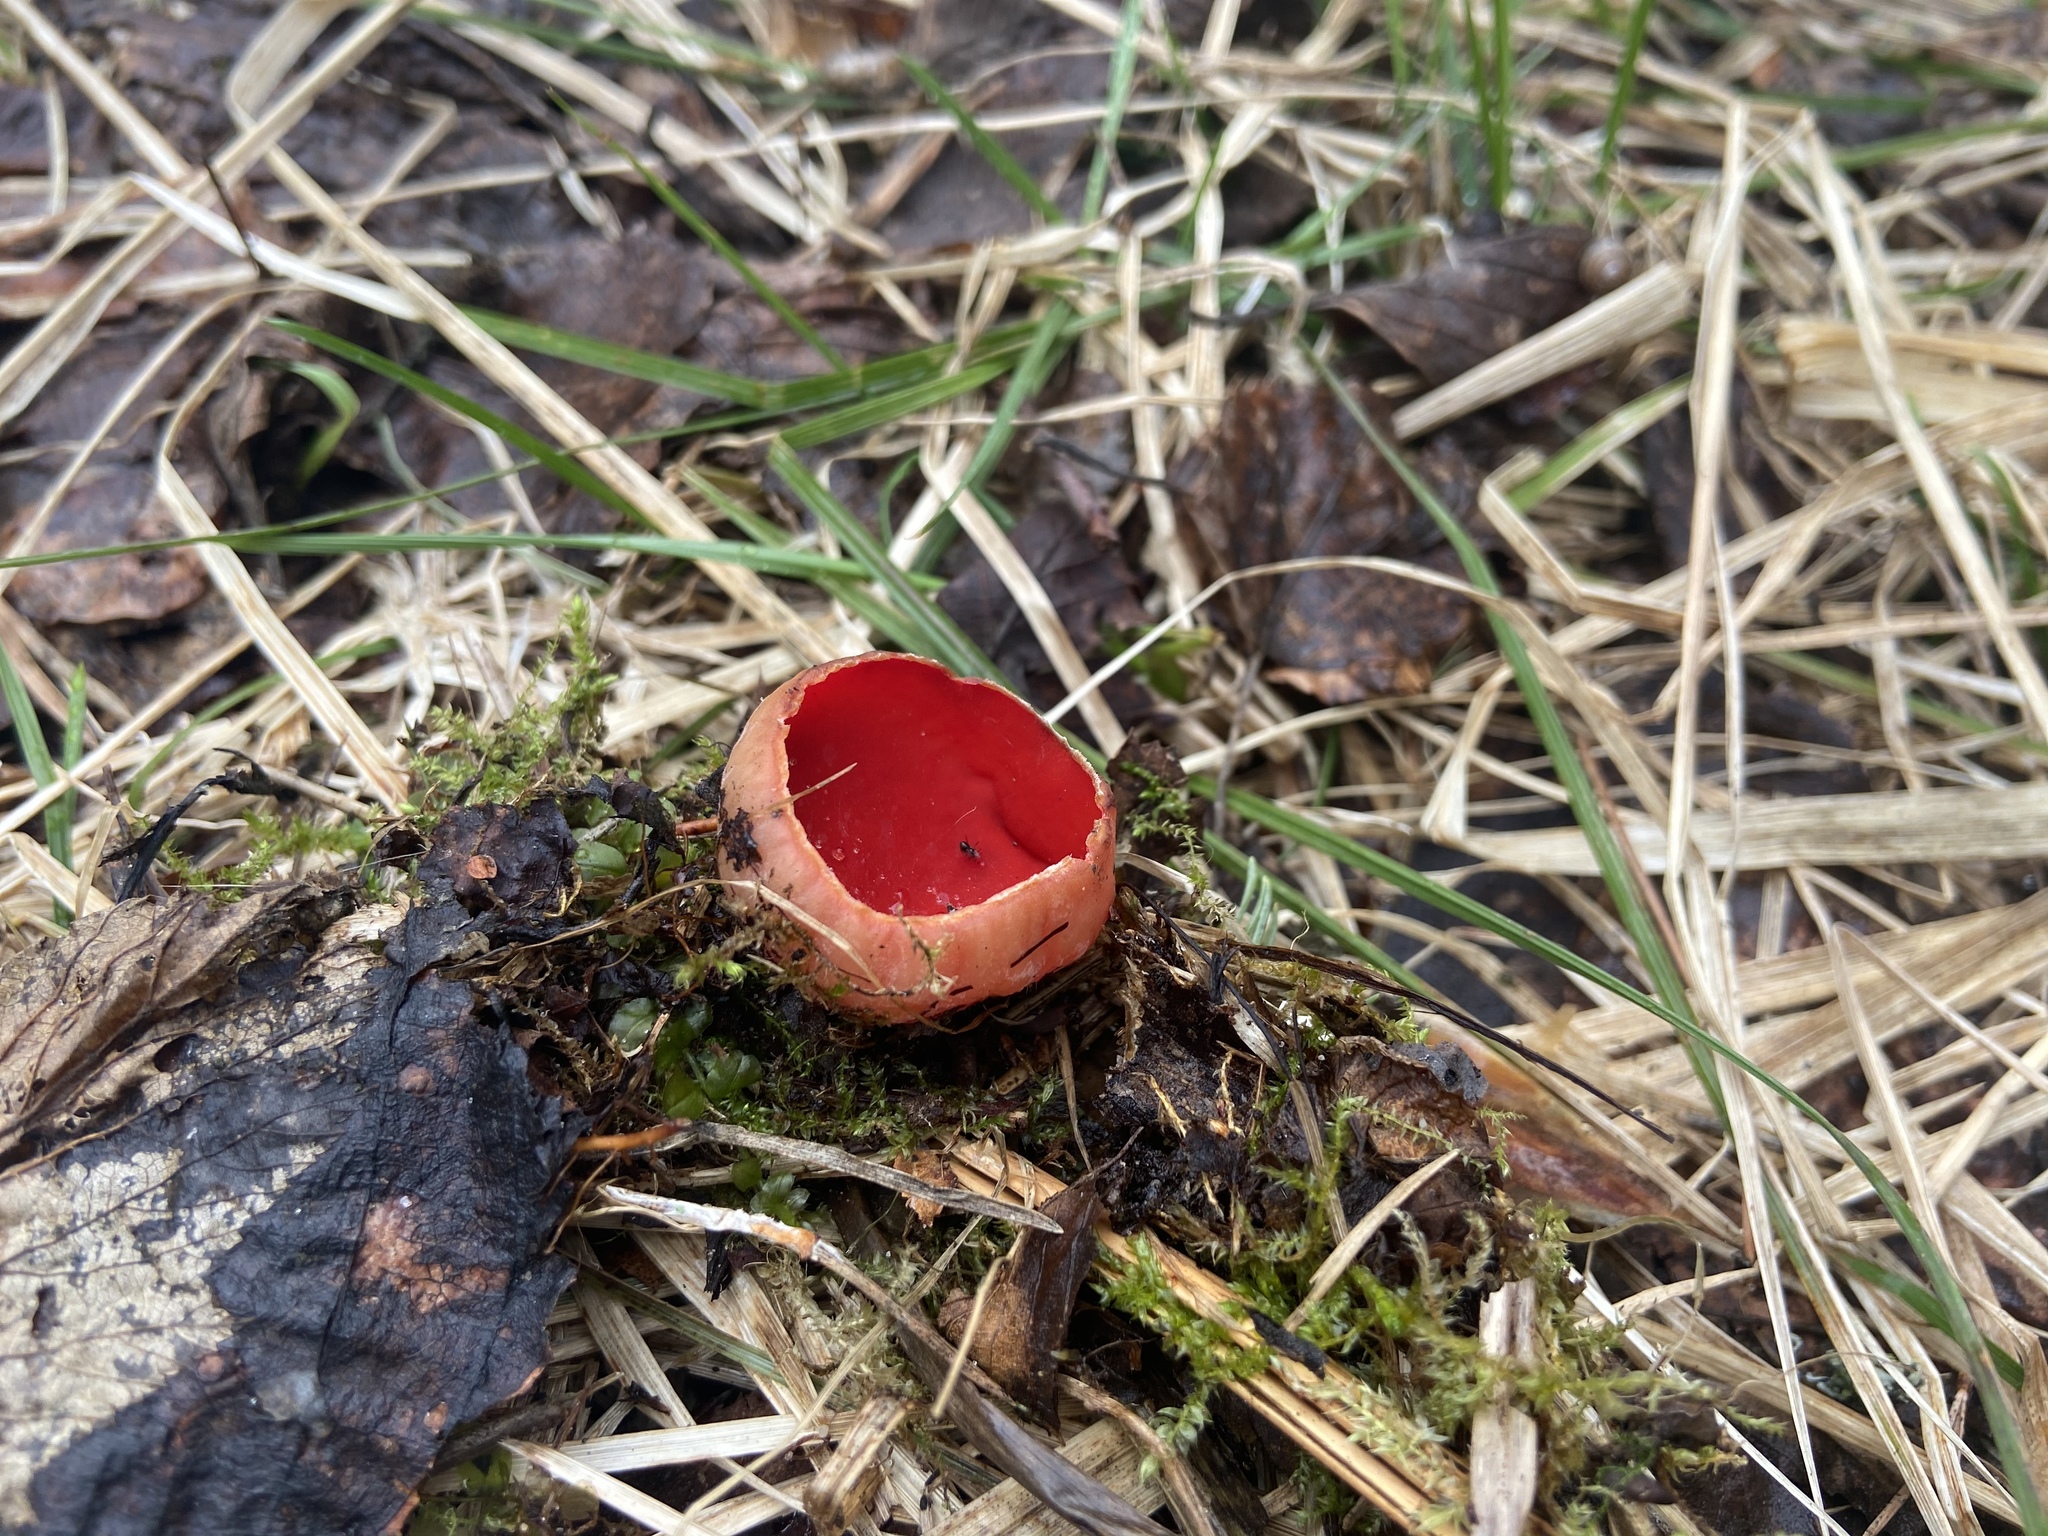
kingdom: Fungi
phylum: Ascomycota
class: Pezizomycetes
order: Pezizales
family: Sarcoscyphaceae
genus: Sarcoscypha
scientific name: Sarcoscypha austriaca
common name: Scarlet elfcup
